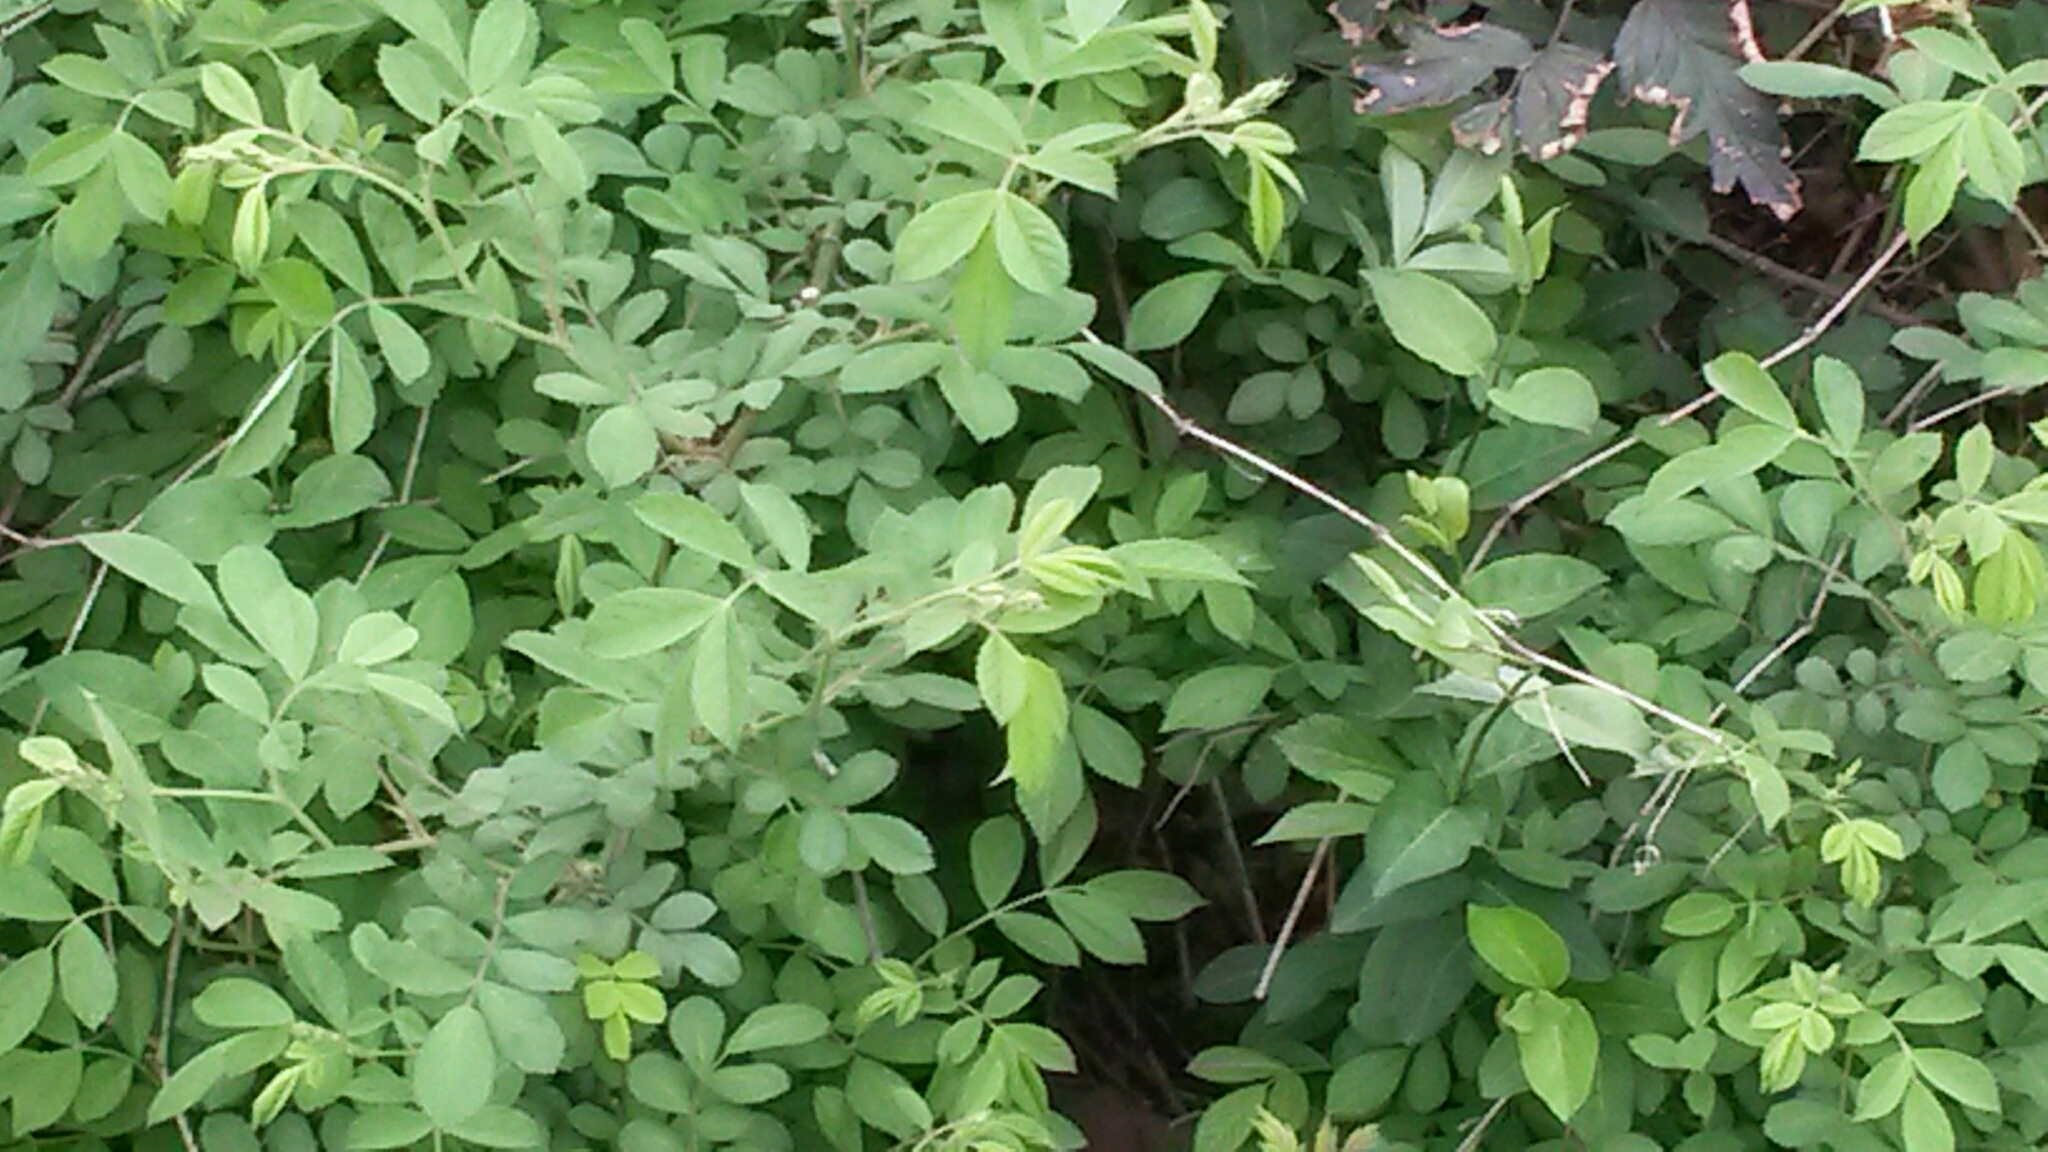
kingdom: Plantae
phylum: Tracheophyta
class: Magnoliopsida
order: Rosales
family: Rosaceae
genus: Rosa
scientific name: Rosa multiflora
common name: Multiflora rose
